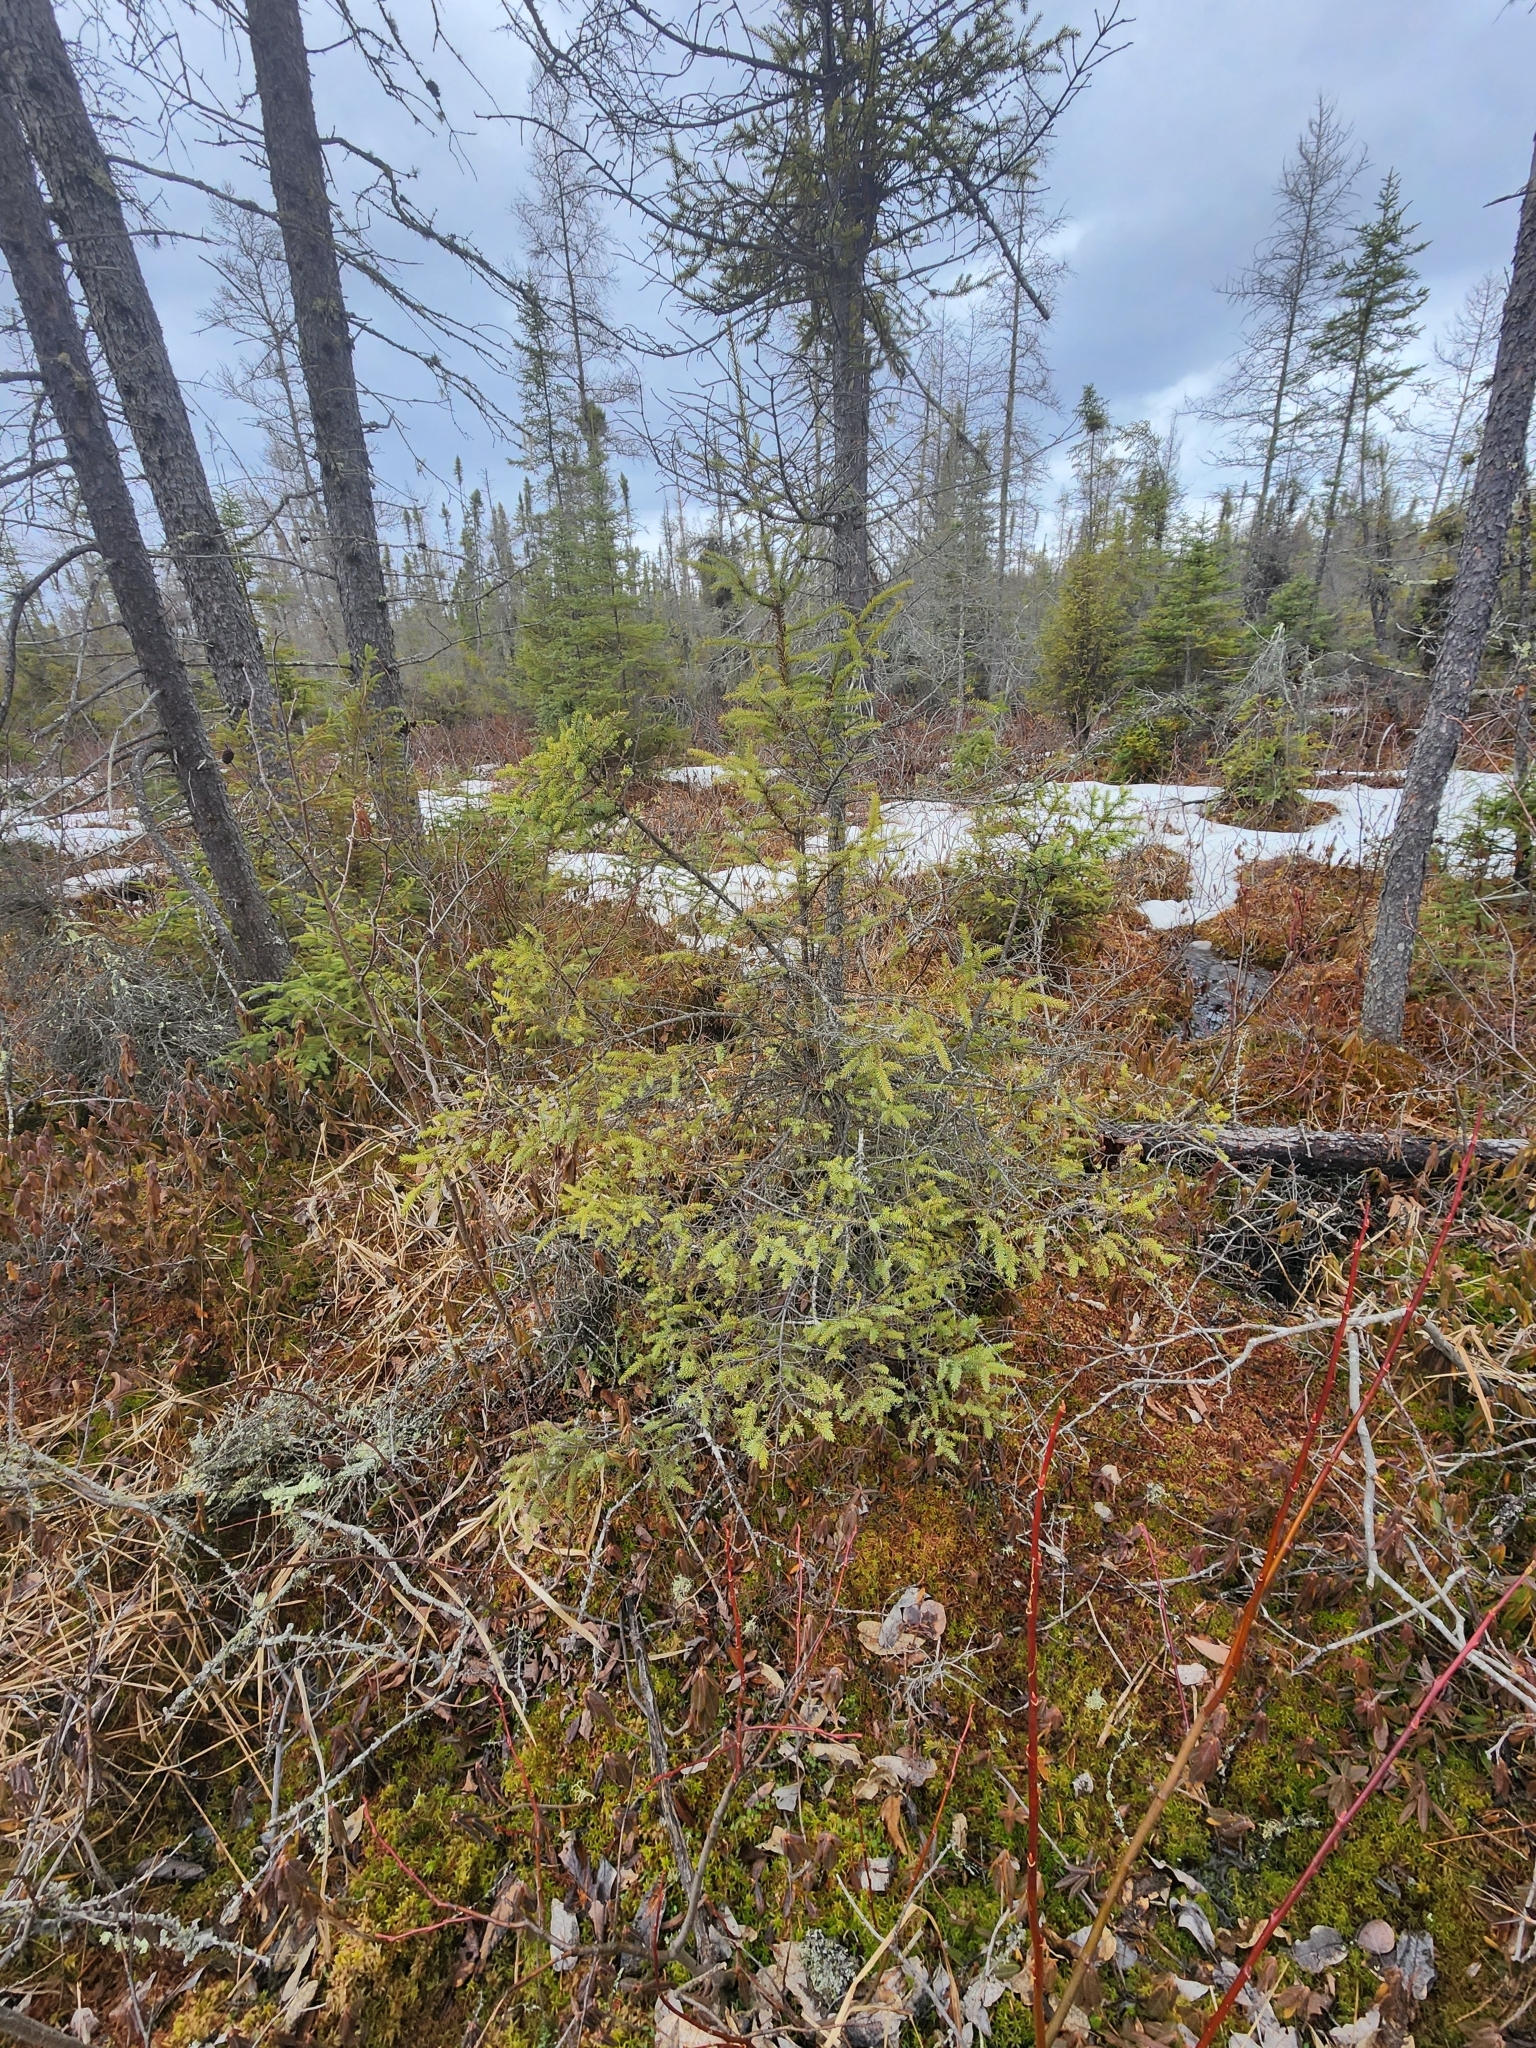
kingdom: Plantae
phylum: Tracheophyta
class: Pinopsida
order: Pinales
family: Pinaceae
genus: Picea
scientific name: Picea mariana
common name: Black spruce
